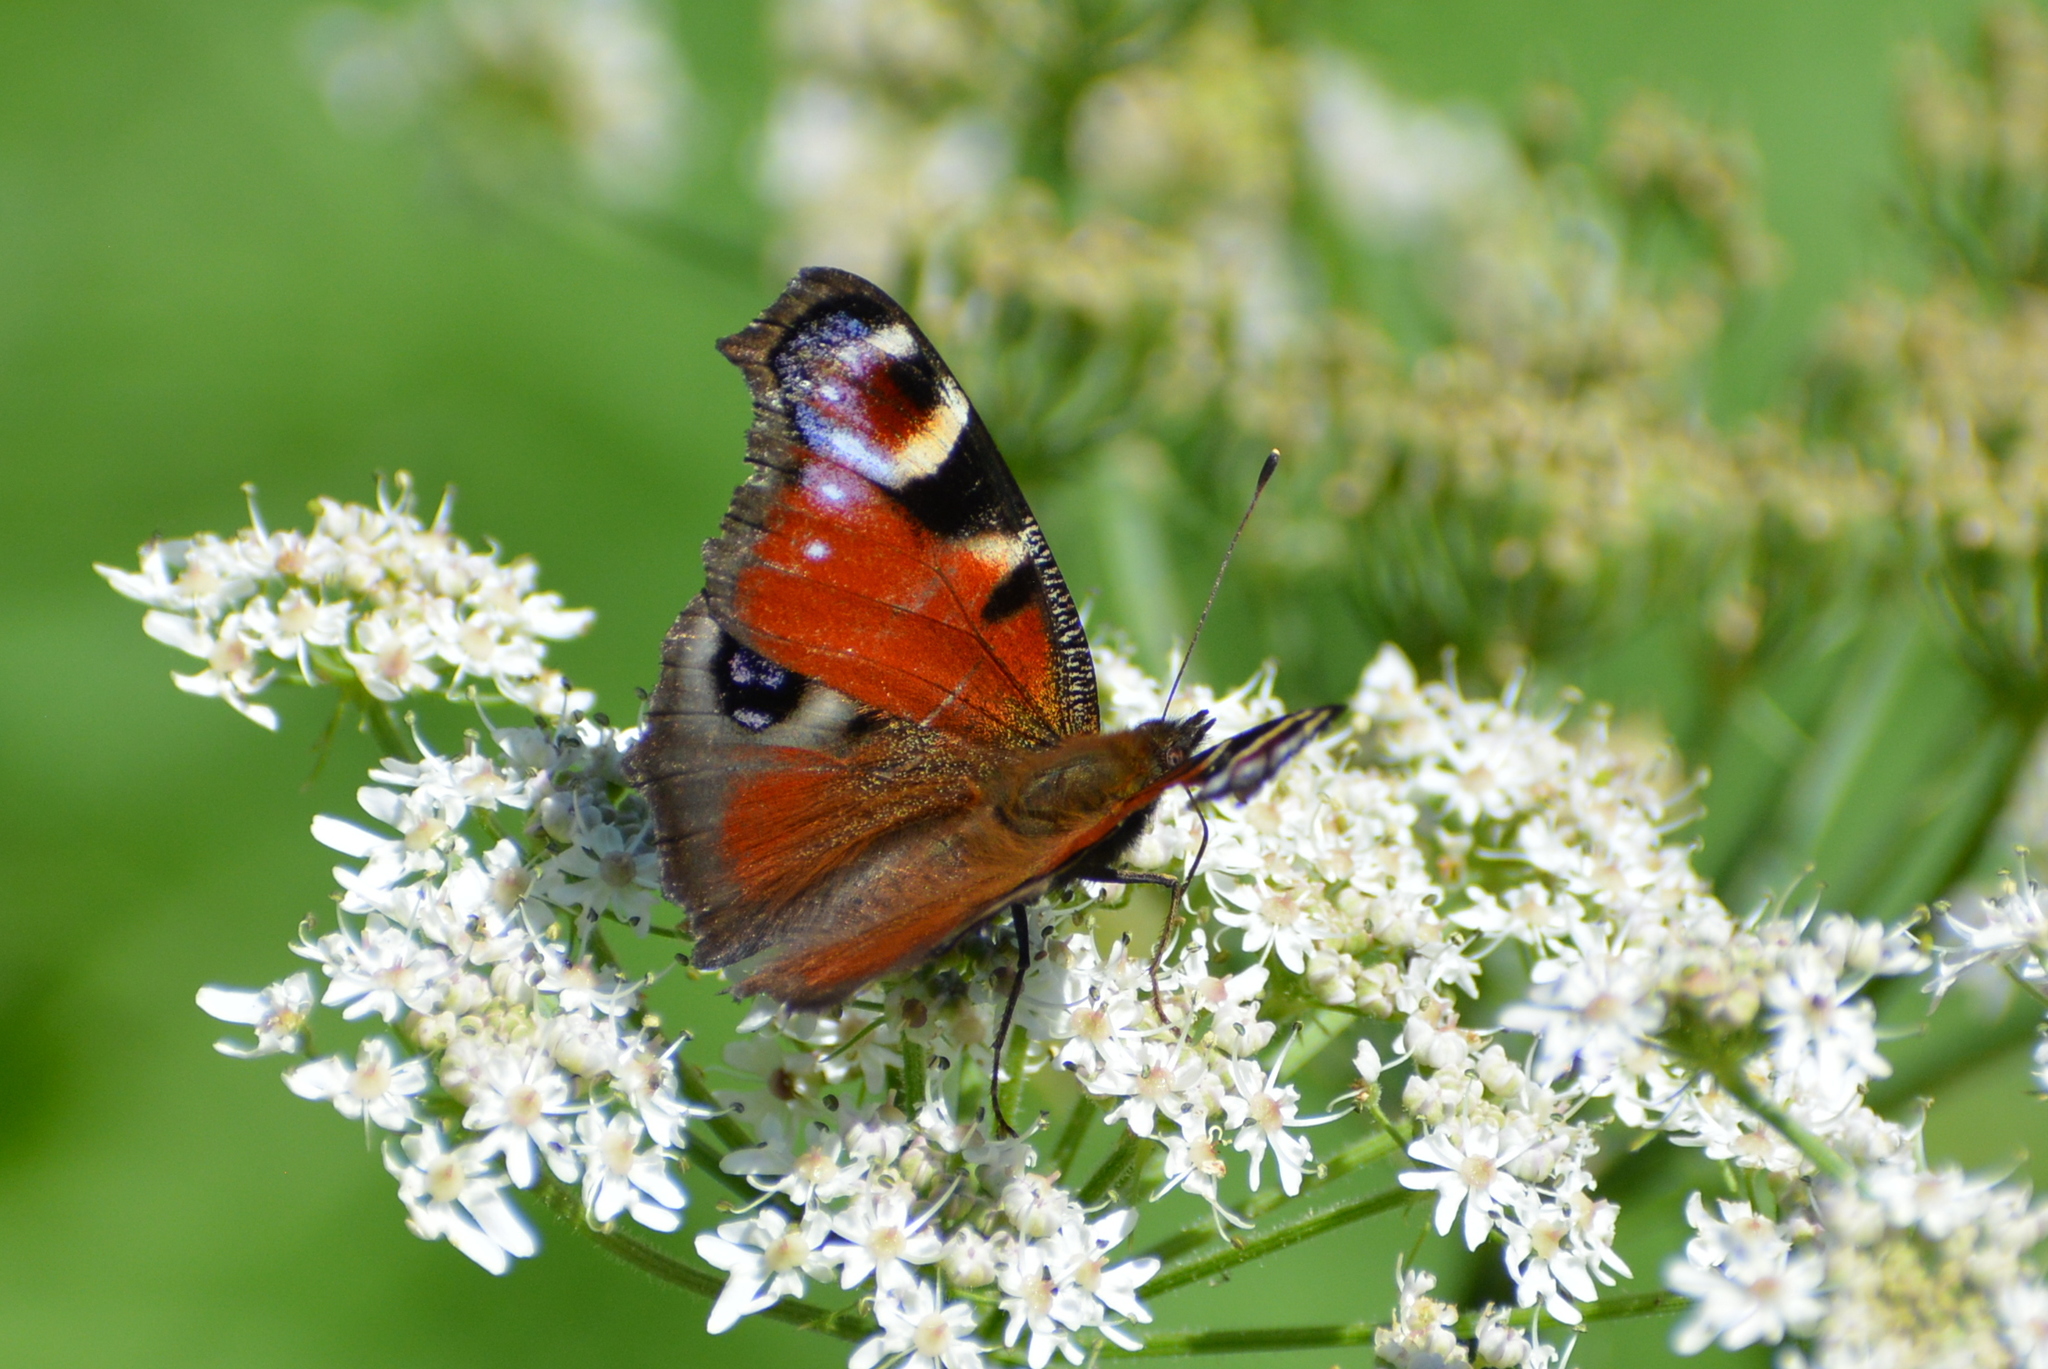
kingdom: Animalia
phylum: Arthropoda
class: Insecta
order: Lepidoptera
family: Nymphalidae
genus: Aglais
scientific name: Aglais io
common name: Peacock
